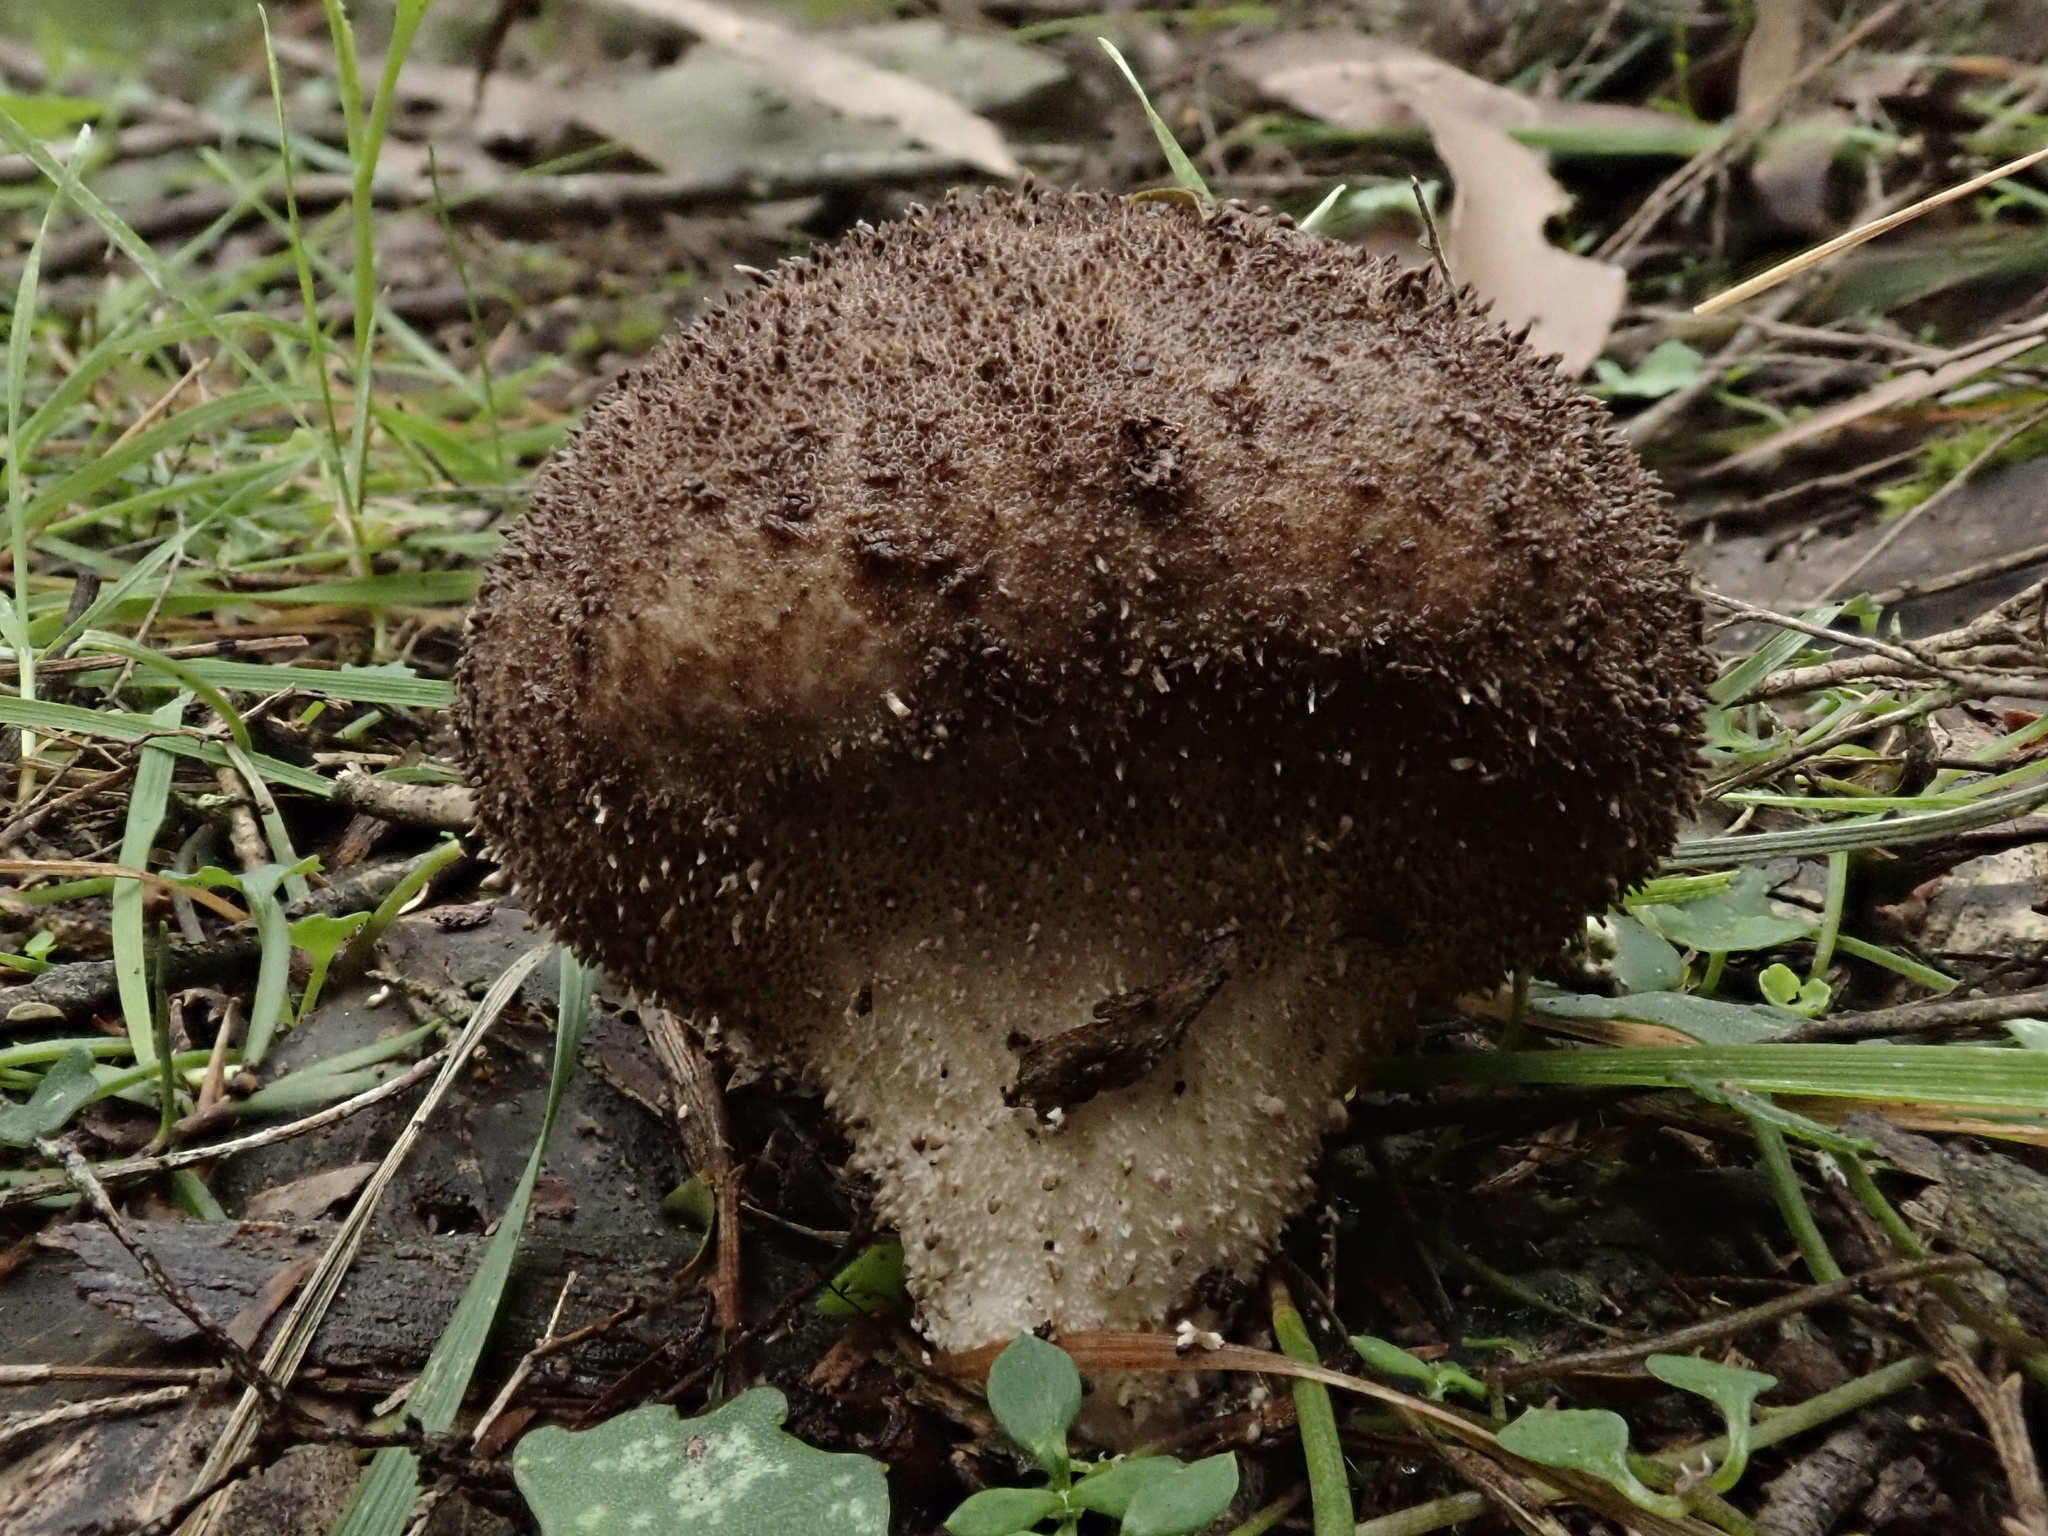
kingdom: Fungi
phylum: Ascomycota
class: Eurotiomycetes
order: Eurotiales
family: Elaphomycetaceae
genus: Elaphomyces
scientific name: Elaphomyces granulatus
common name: False truffle
